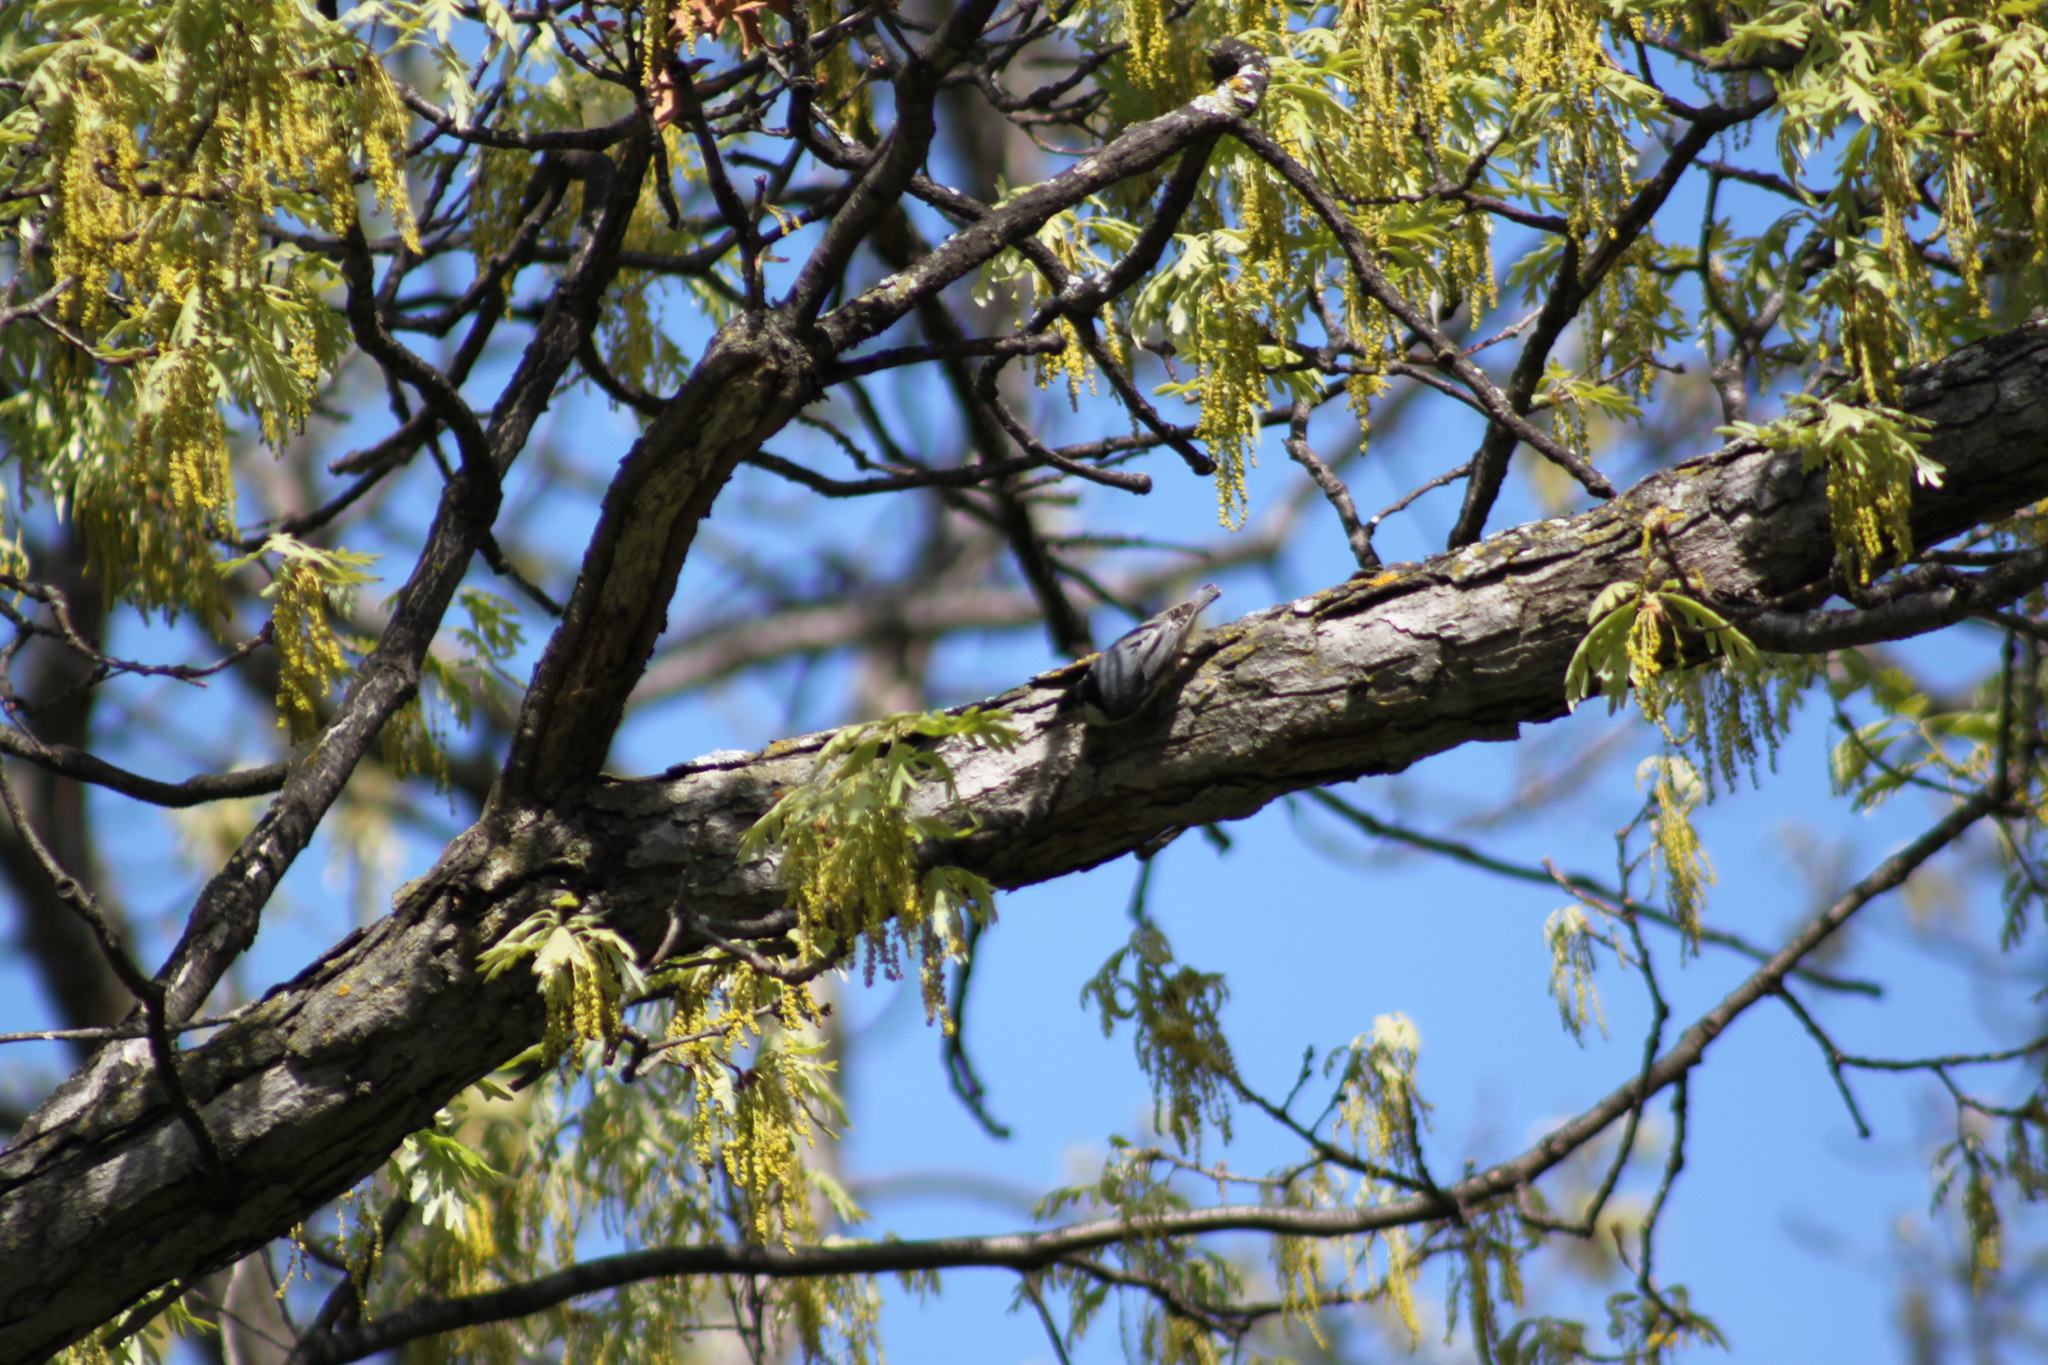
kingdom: Animalia
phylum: Chordata
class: Aves
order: Passeriformes
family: Sittidae
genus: Sitta
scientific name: Sitta carolinensis
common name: White-breasted nuthatch
